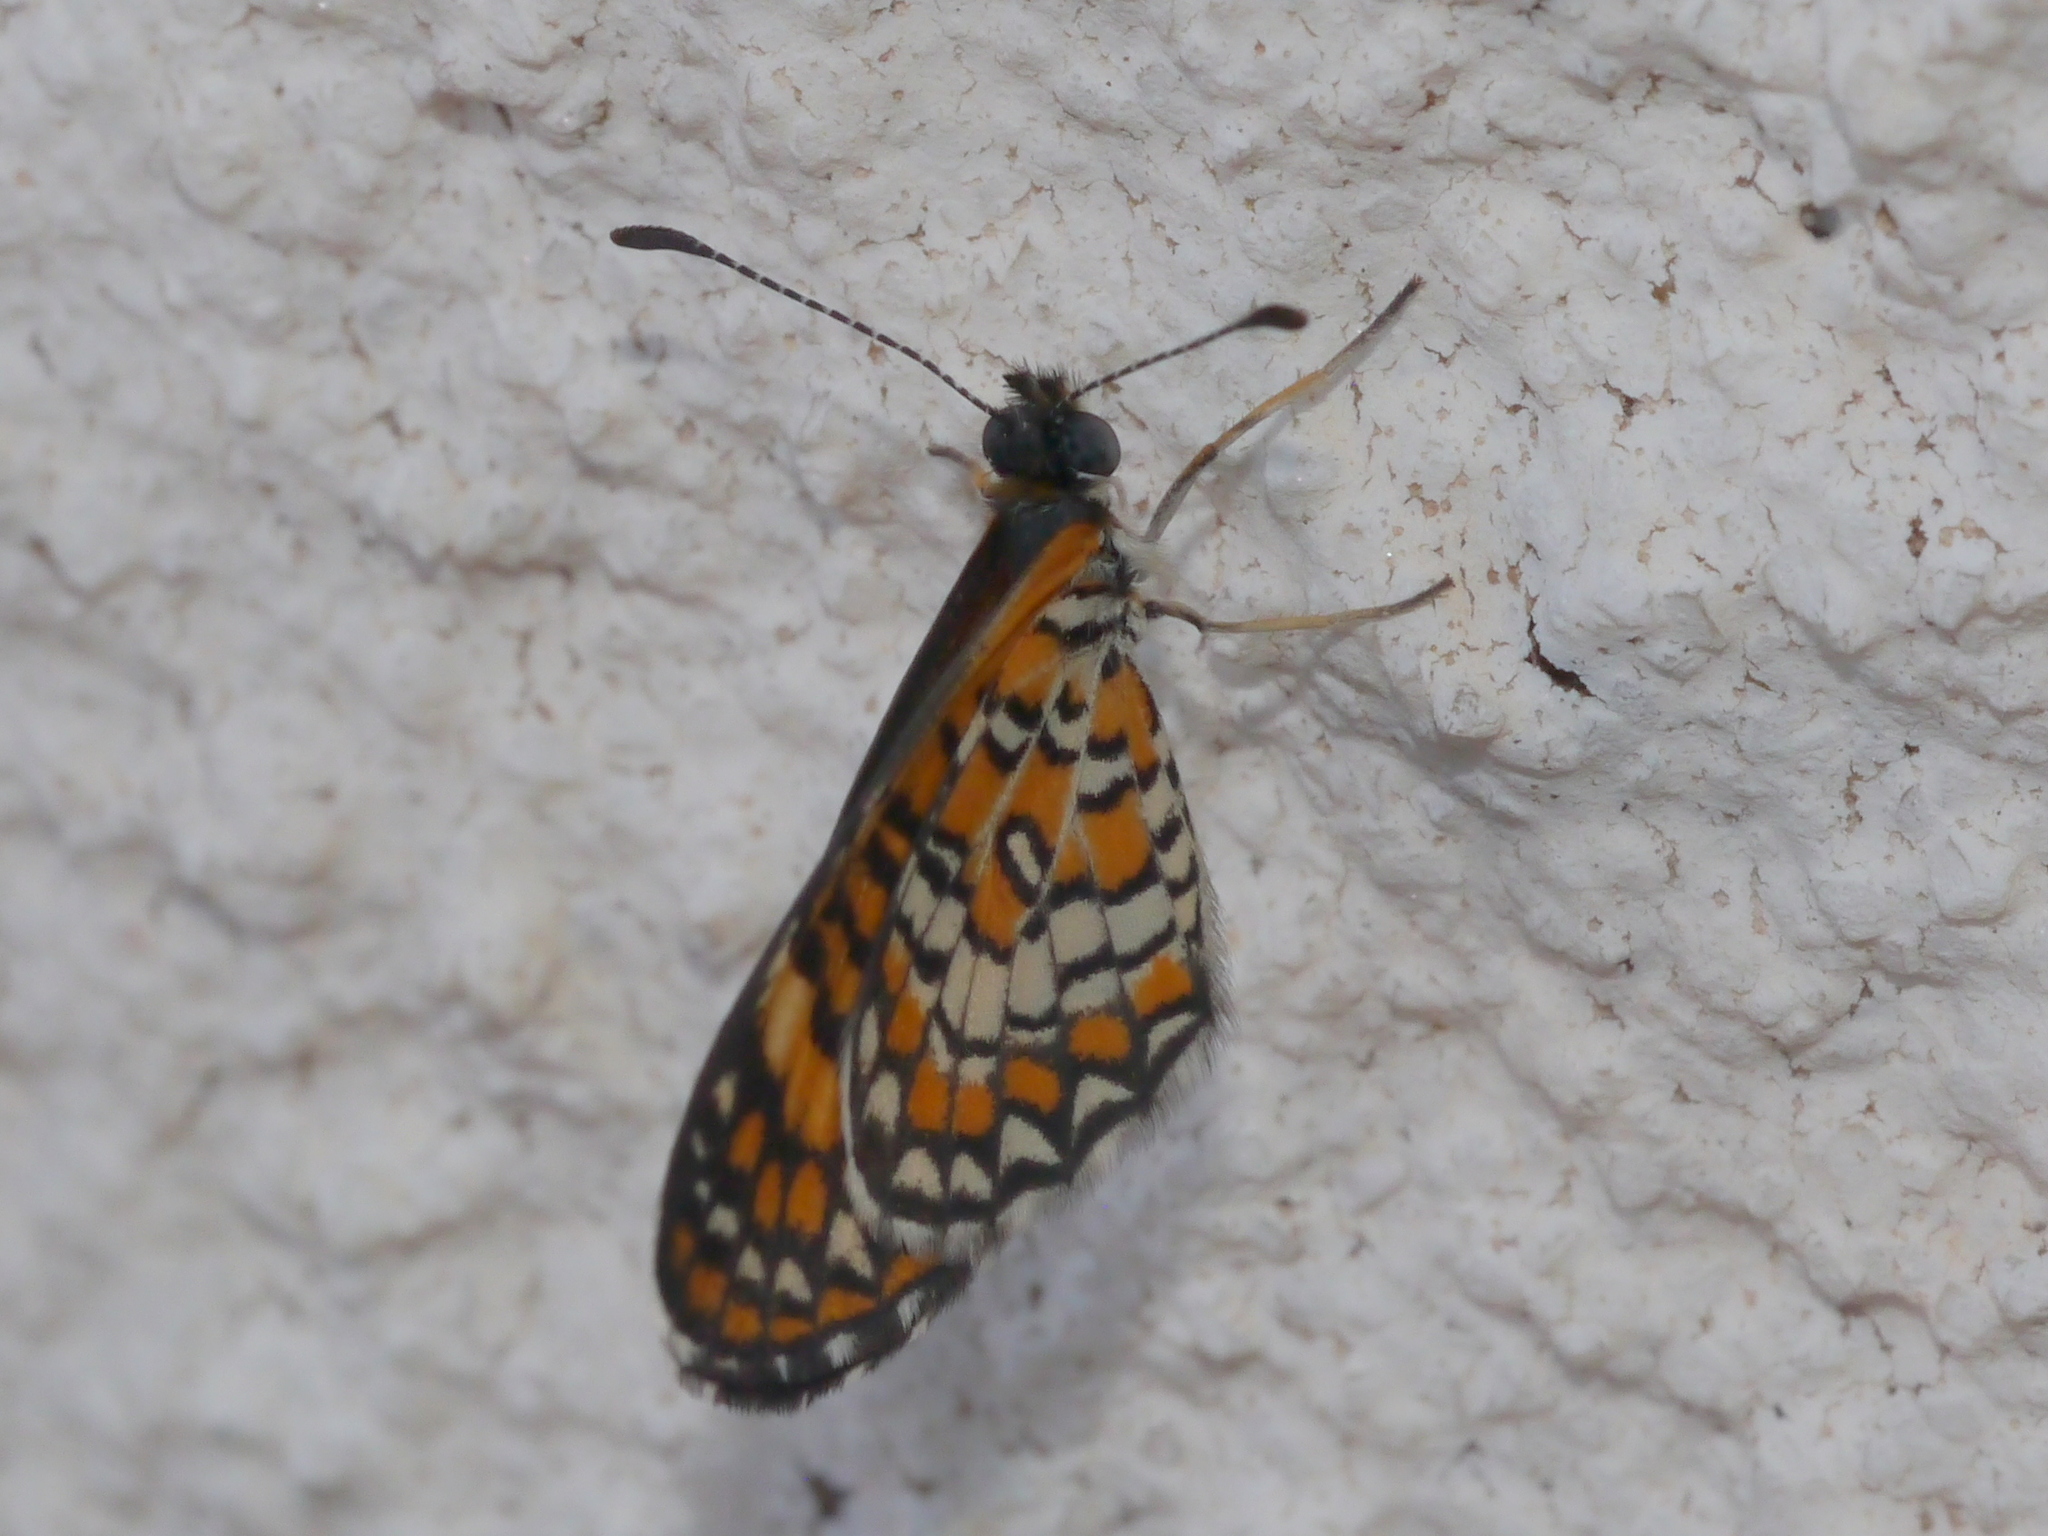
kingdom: Animalia
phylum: Arthropoda
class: Insecta
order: Lepidoptera
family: Nymphalidae
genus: Dymasia
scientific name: Dymasia dymas
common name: Tiny checkerspot
